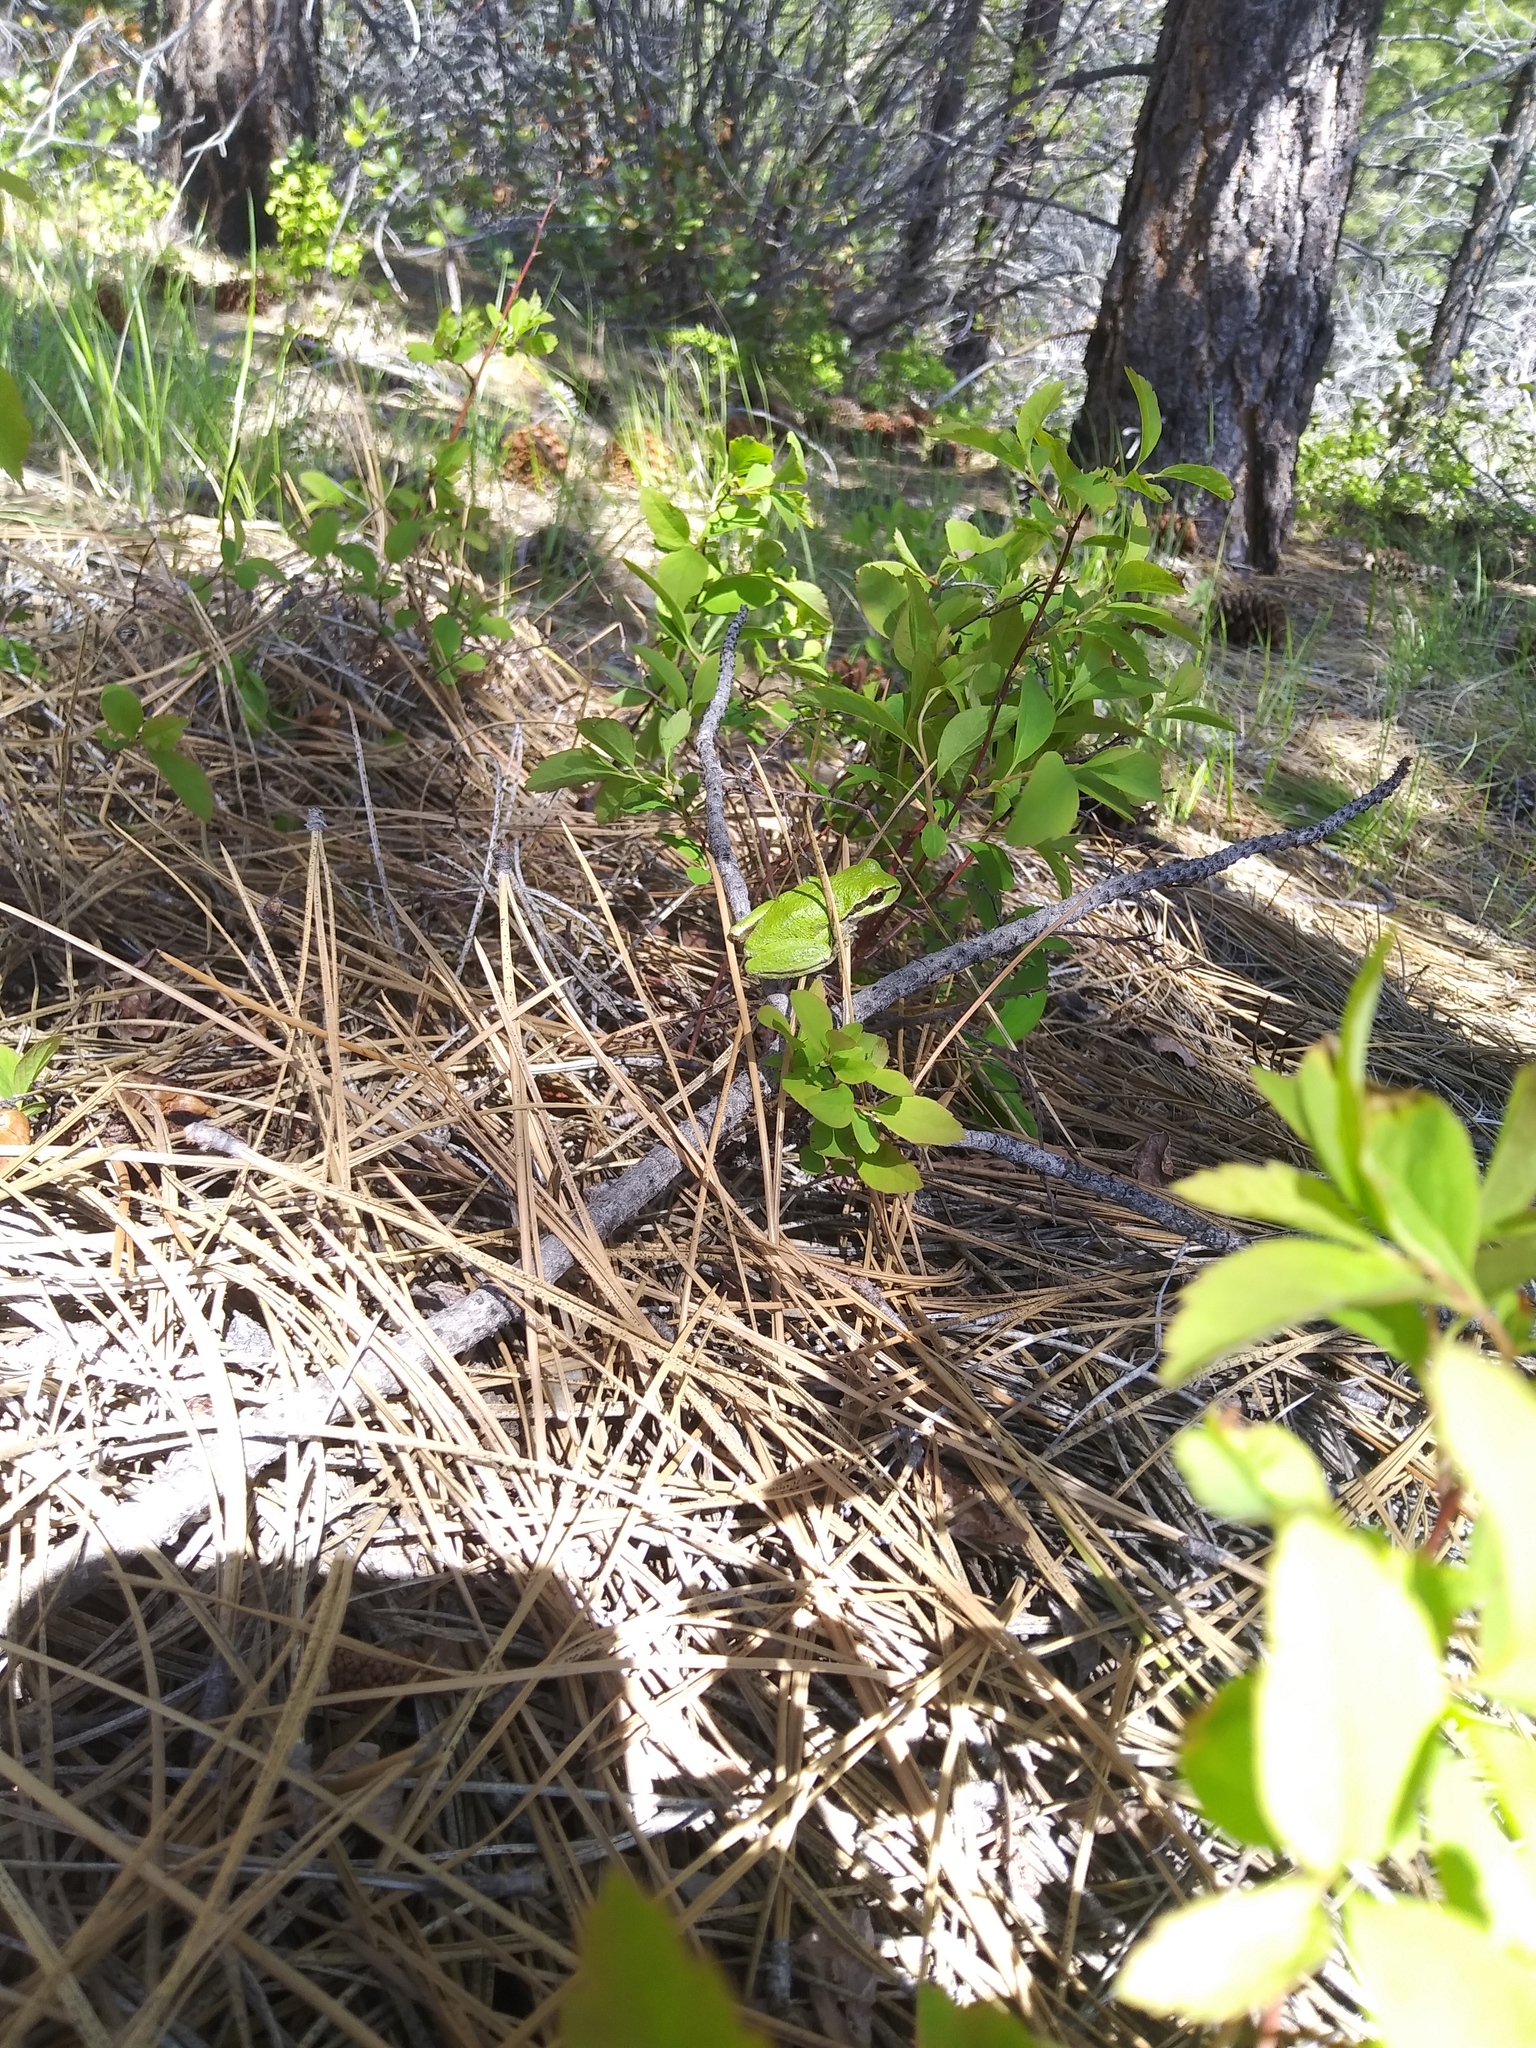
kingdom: Animalia
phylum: Chordata
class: Amphibia
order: Anura
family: Hylidae
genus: Pseudacris
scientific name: Pseudacris regilla
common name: Pacific chorus frog
